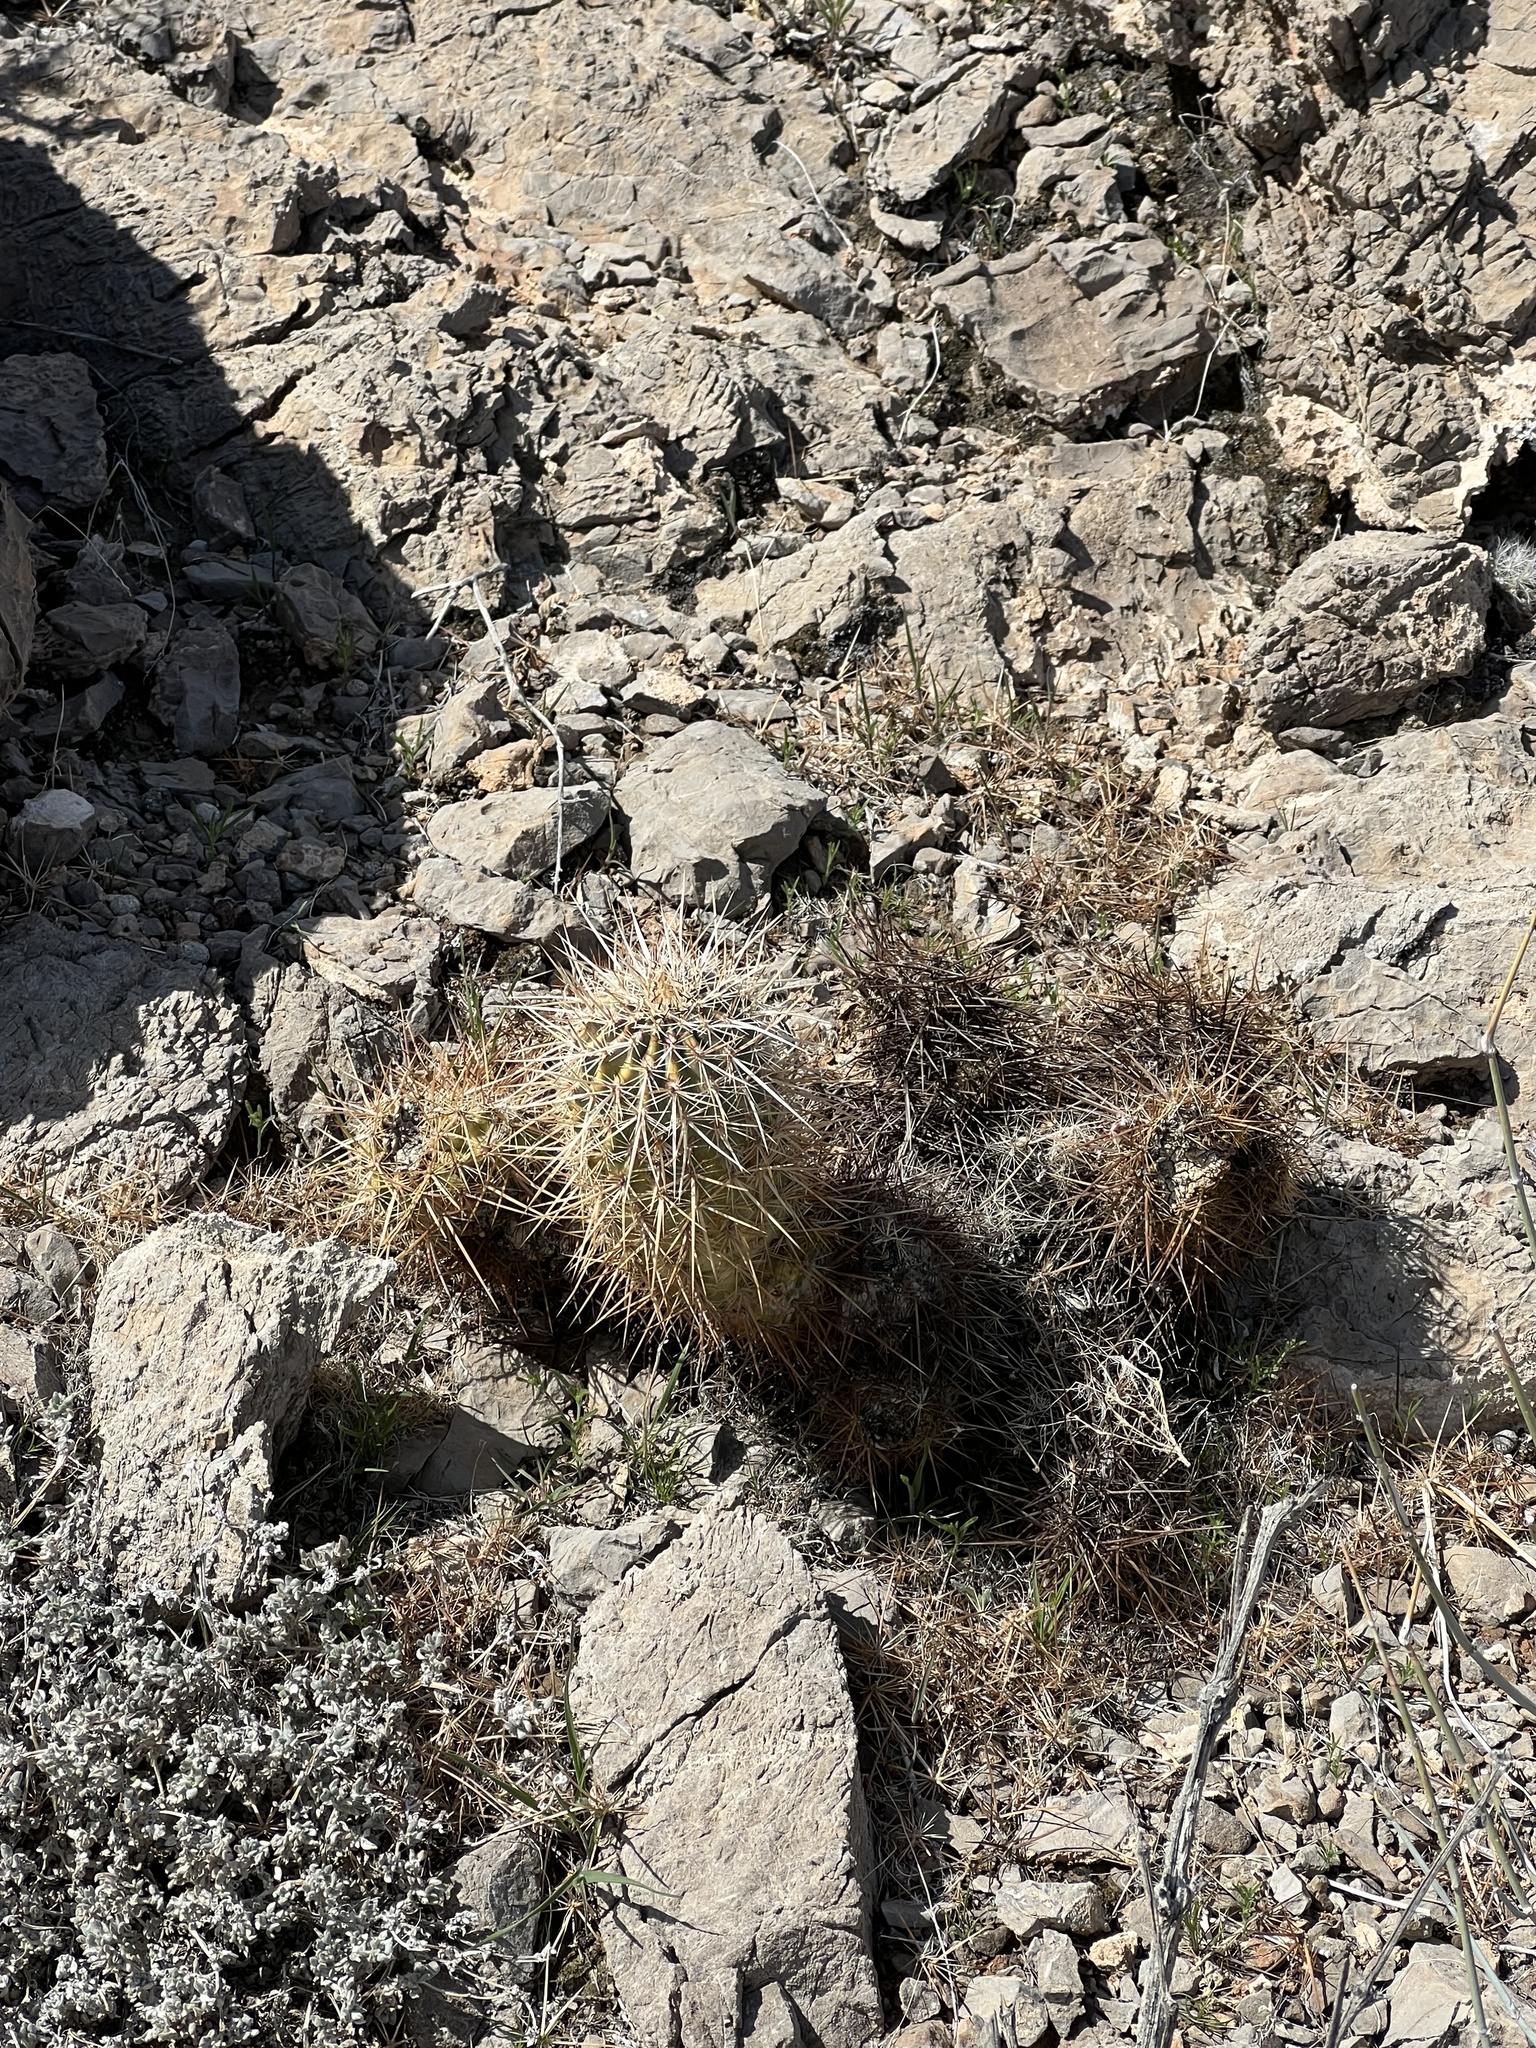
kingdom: Plantae
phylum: Tracheophyta
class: Magnoliopsida
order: Caryophyllales
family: Cactaceae
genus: Echinocereus
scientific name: Echinocereus engelmannii
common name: Engelmann's hedgehog cactus
